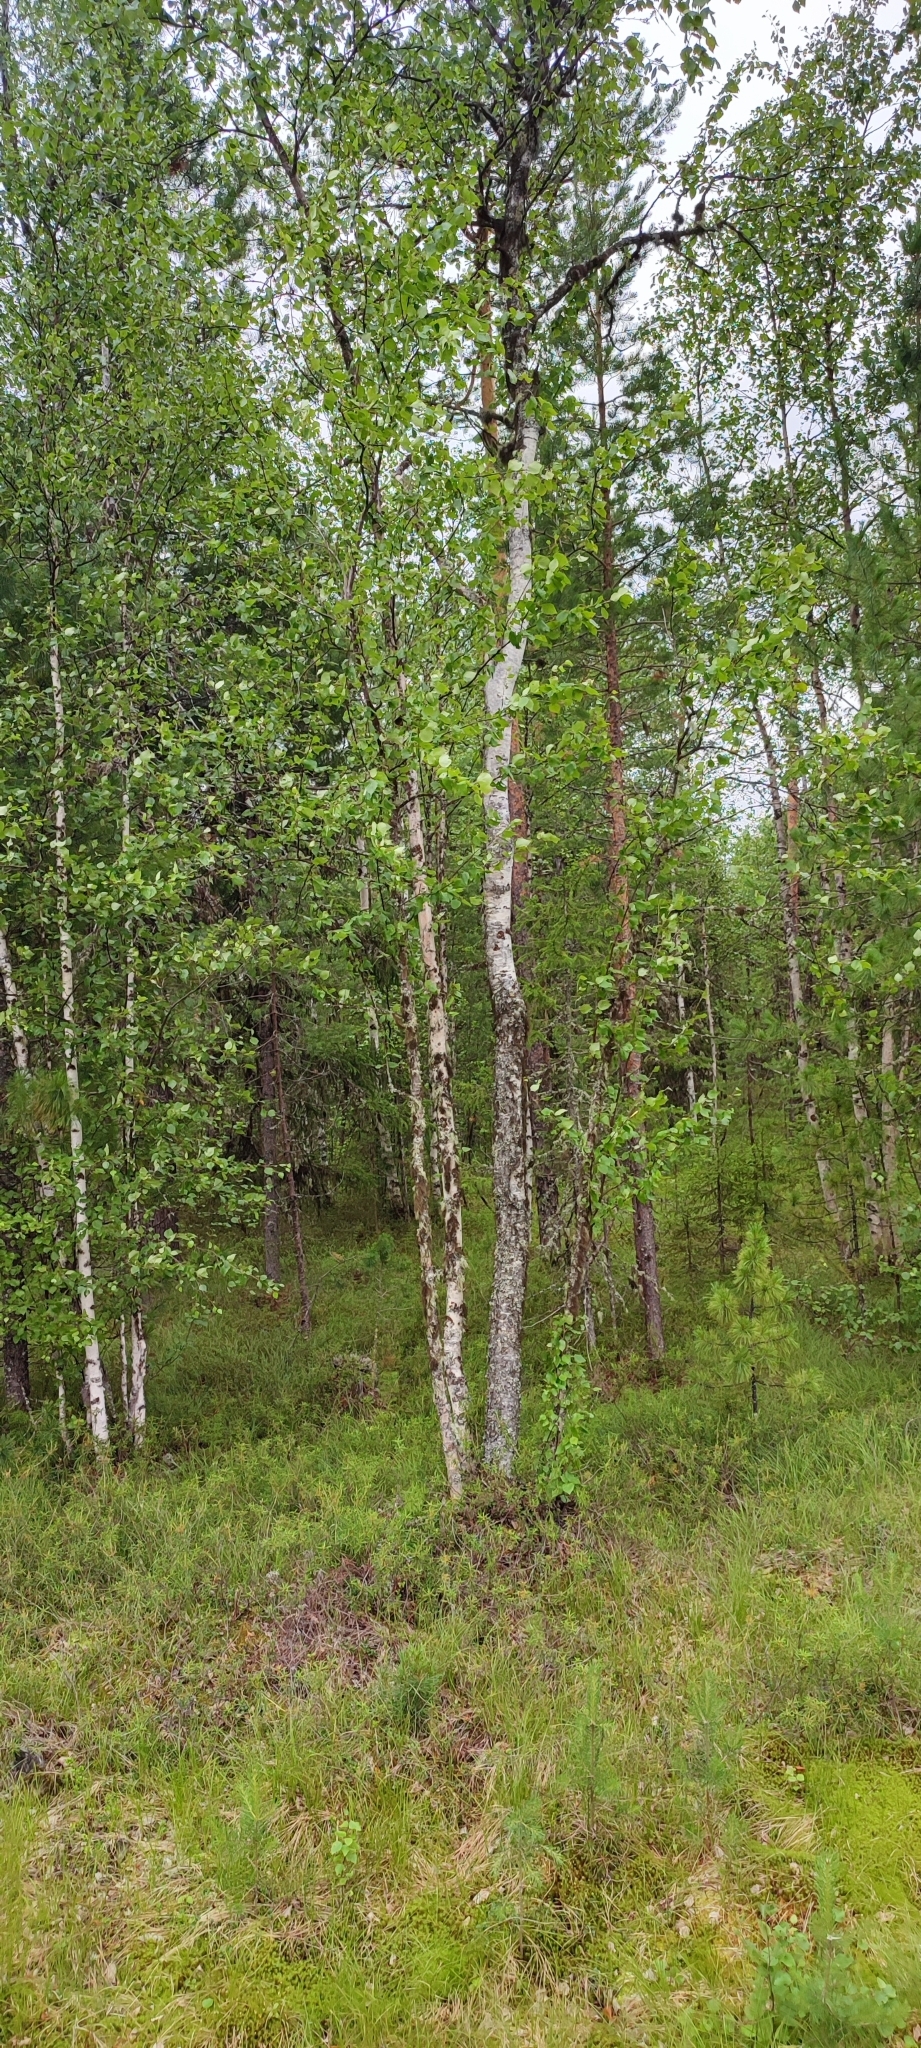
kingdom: Plantae
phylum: Tracheophyta
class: Magnoliopsida
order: Fagales
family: Betulaceae
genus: Betula
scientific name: Betula pubescens
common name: Downy birch
